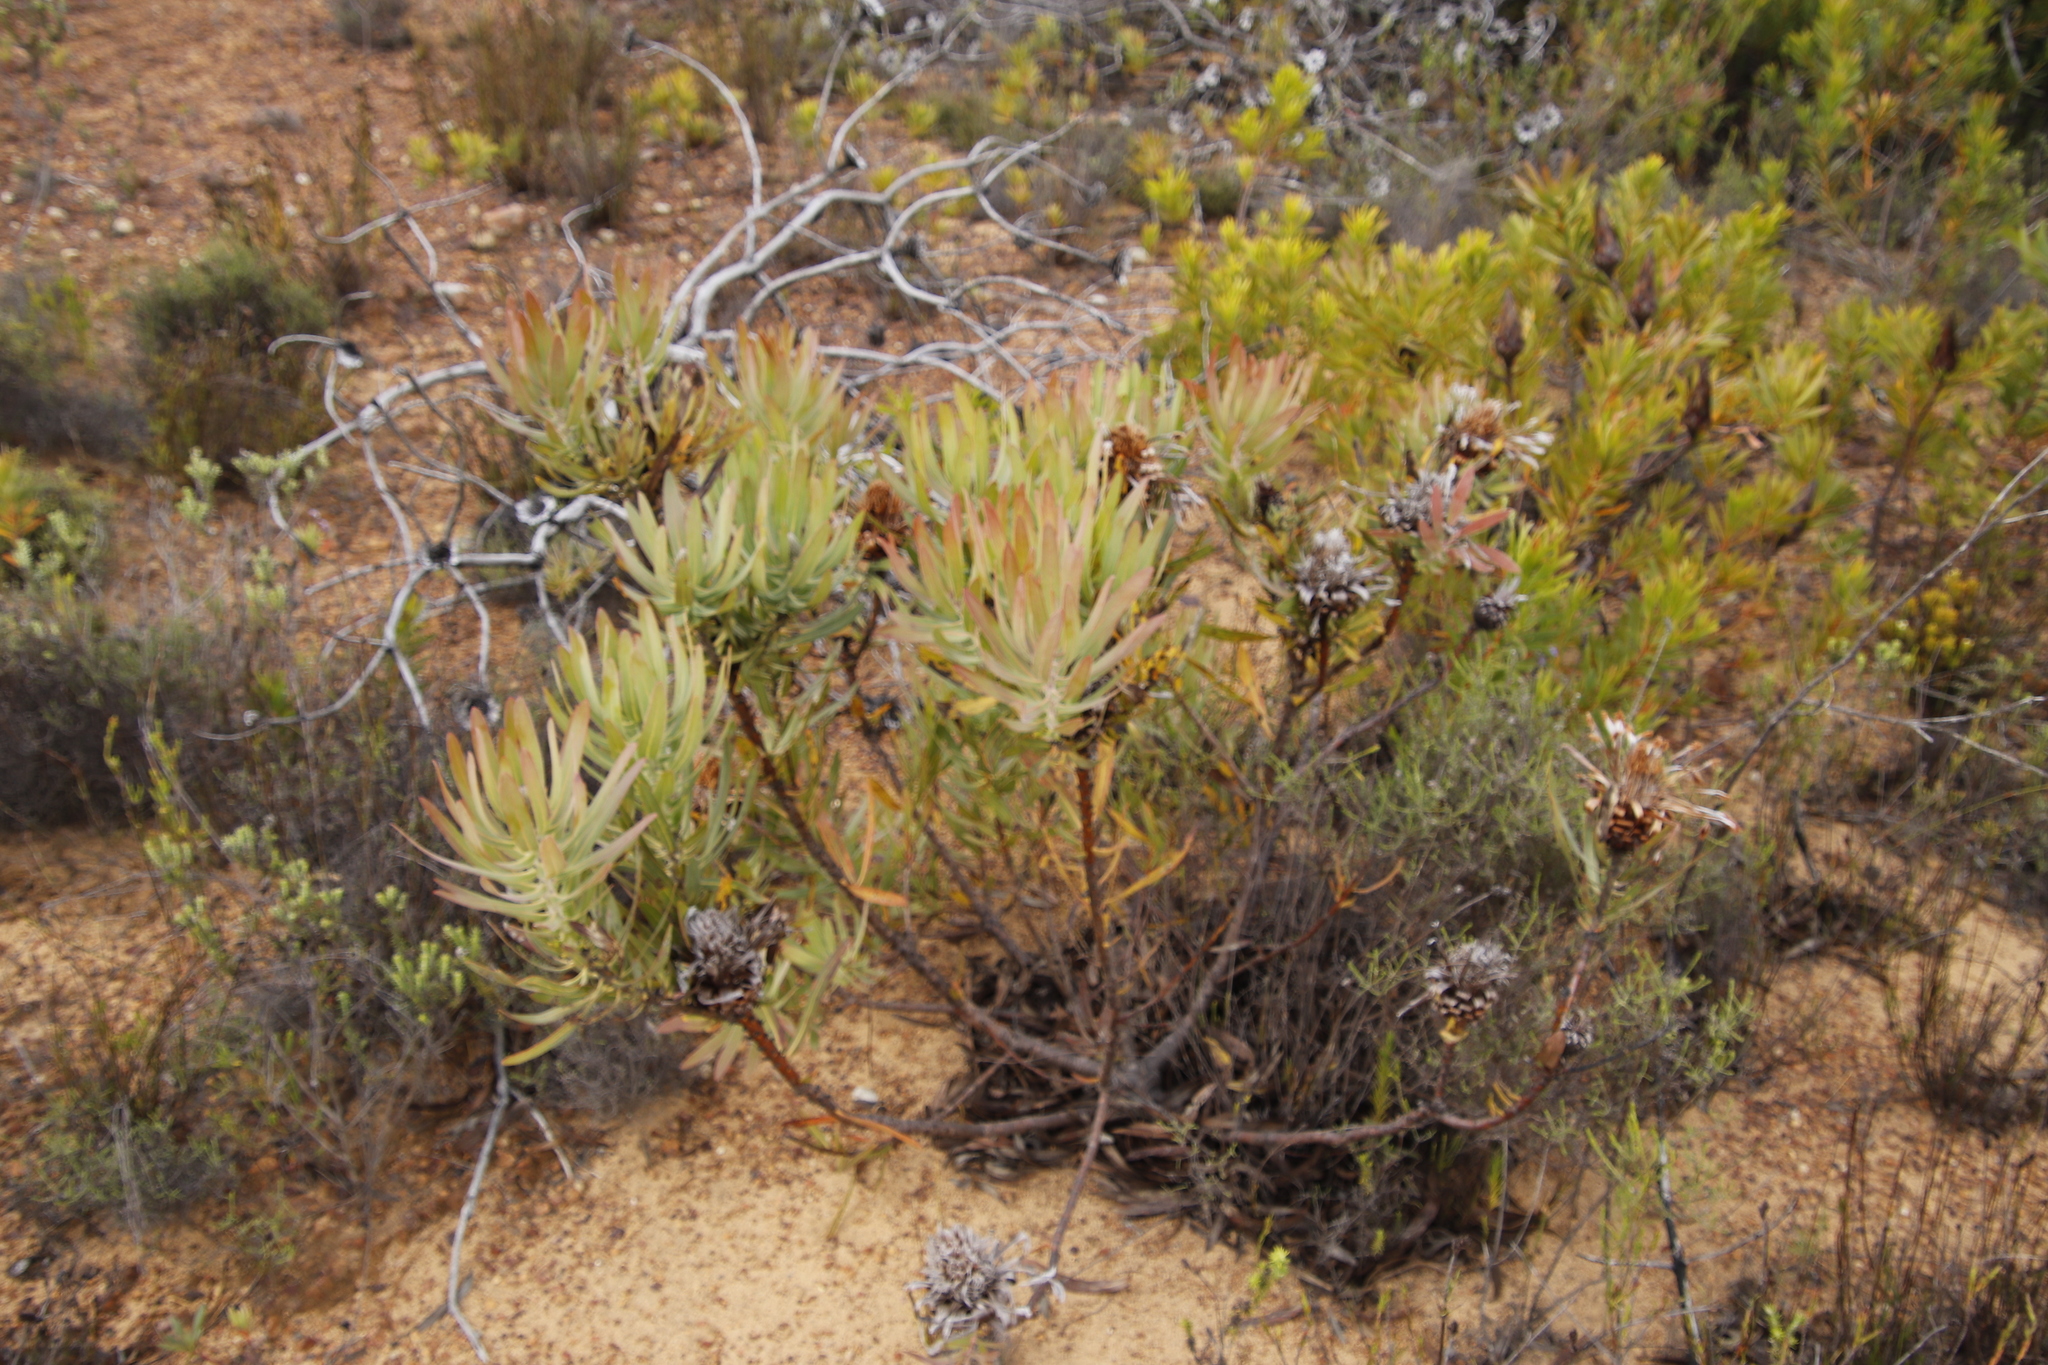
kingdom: Plantae
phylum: Tracheophyta
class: Magnoliopsida
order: Proteales
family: Proteaceae
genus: Protea
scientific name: Protea
